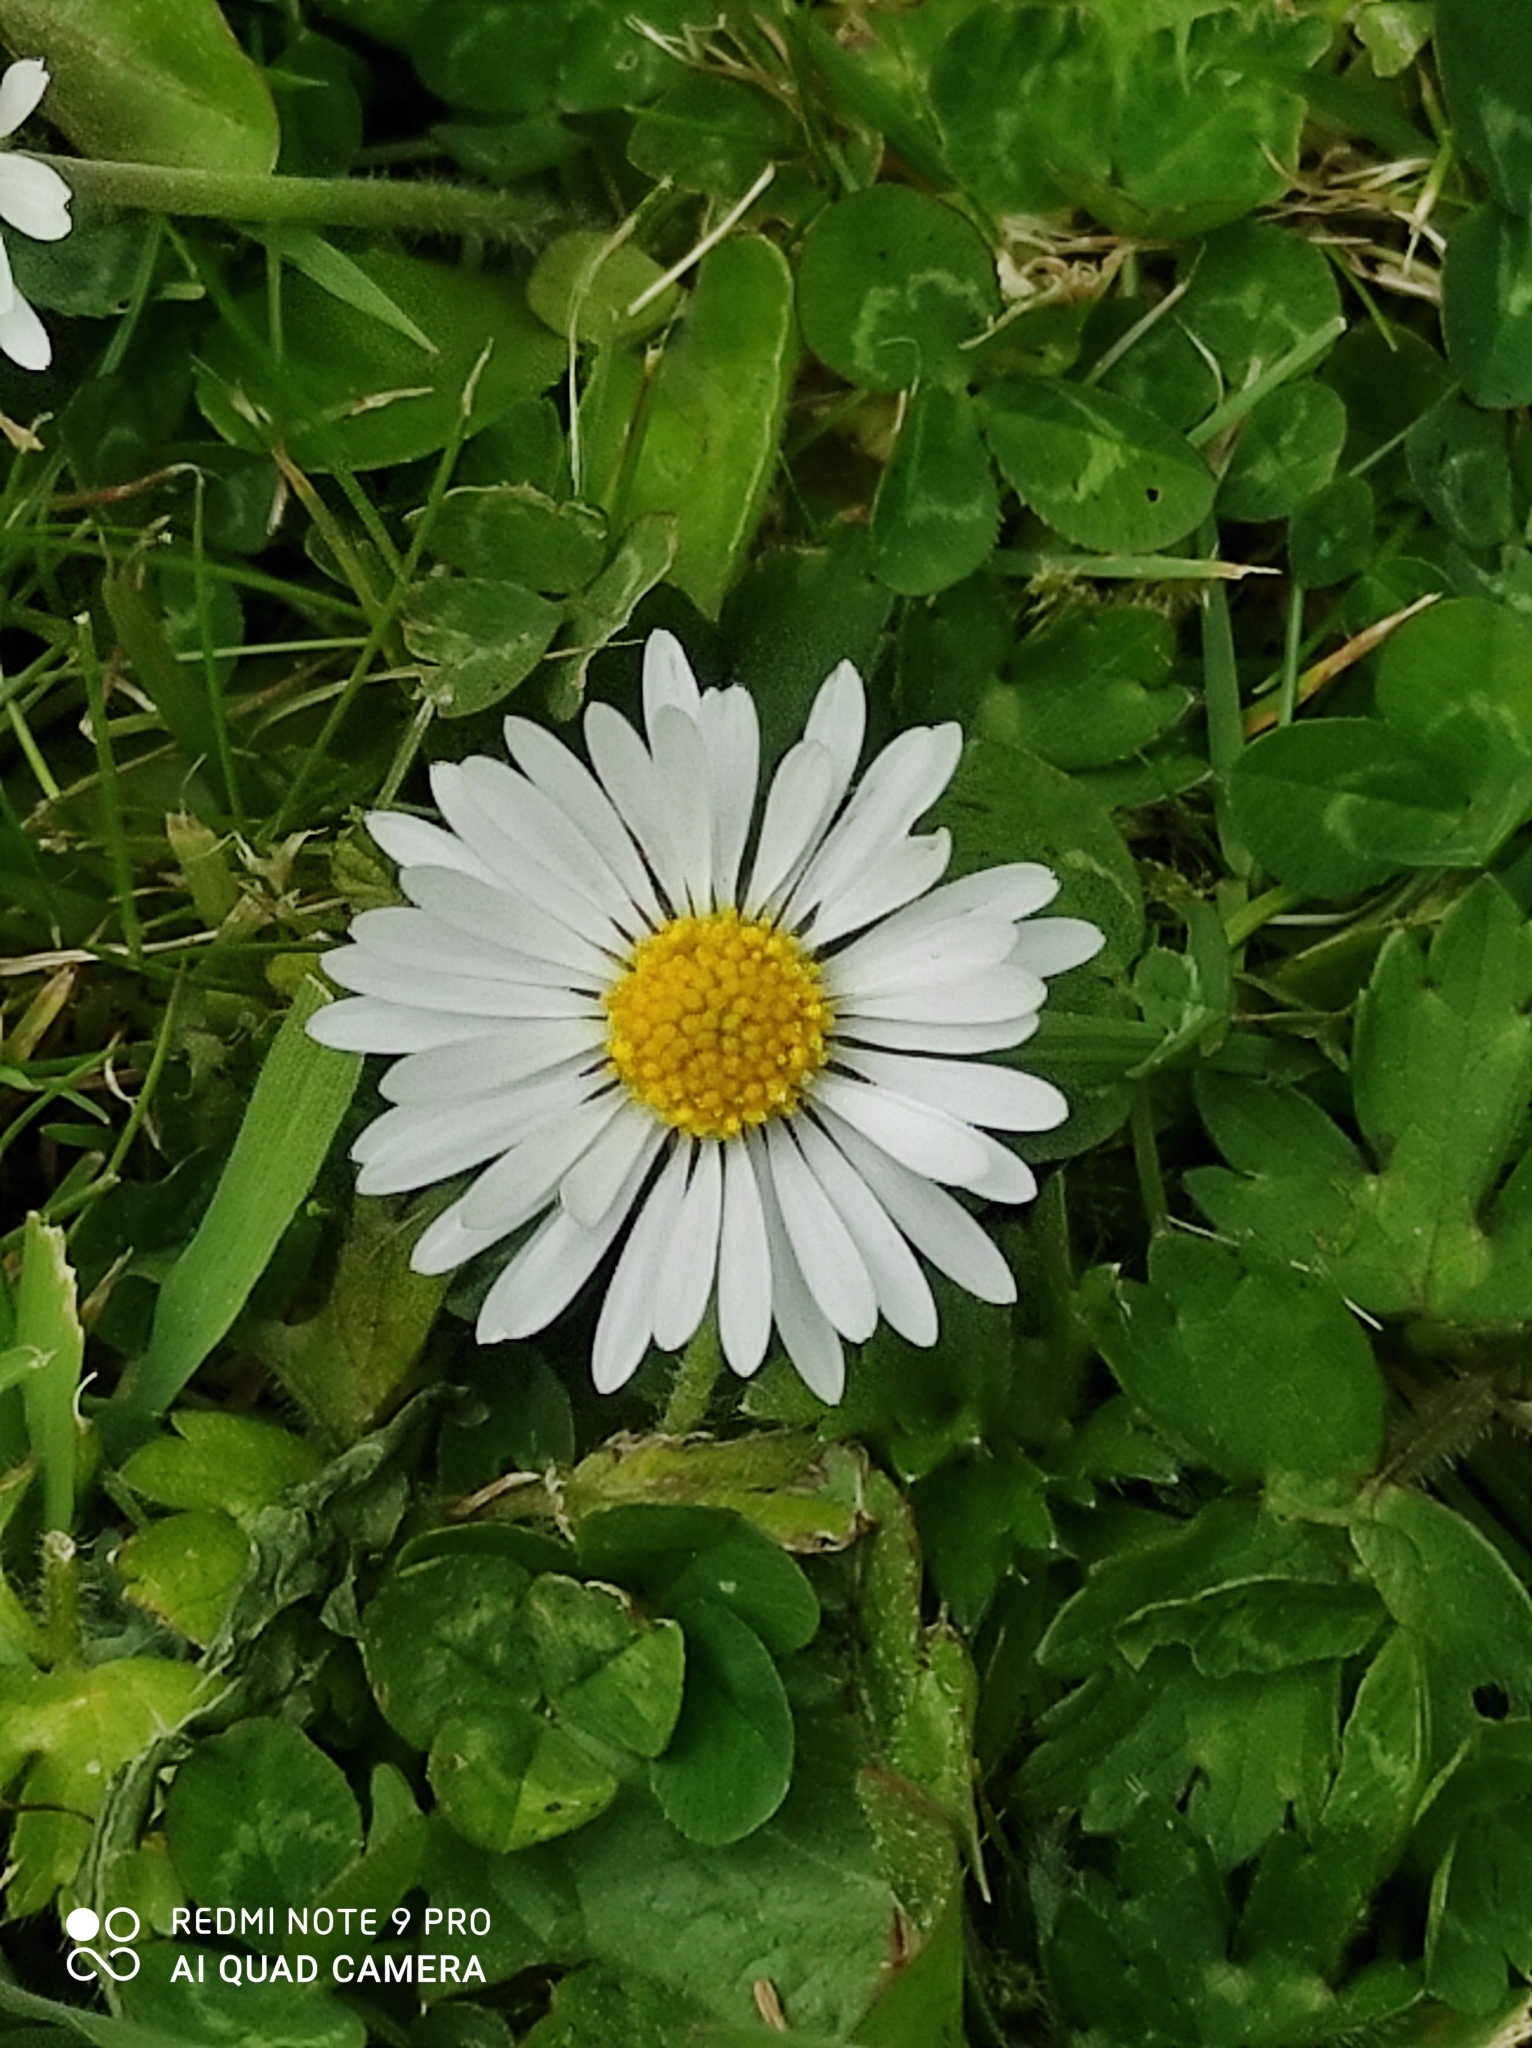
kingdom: Plantae
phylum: Tracheophyta
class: Magnoliopsida
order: Asterales
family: Asteraceae
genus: Bellis
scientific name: Bellis perennis
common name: Lawndaisy
